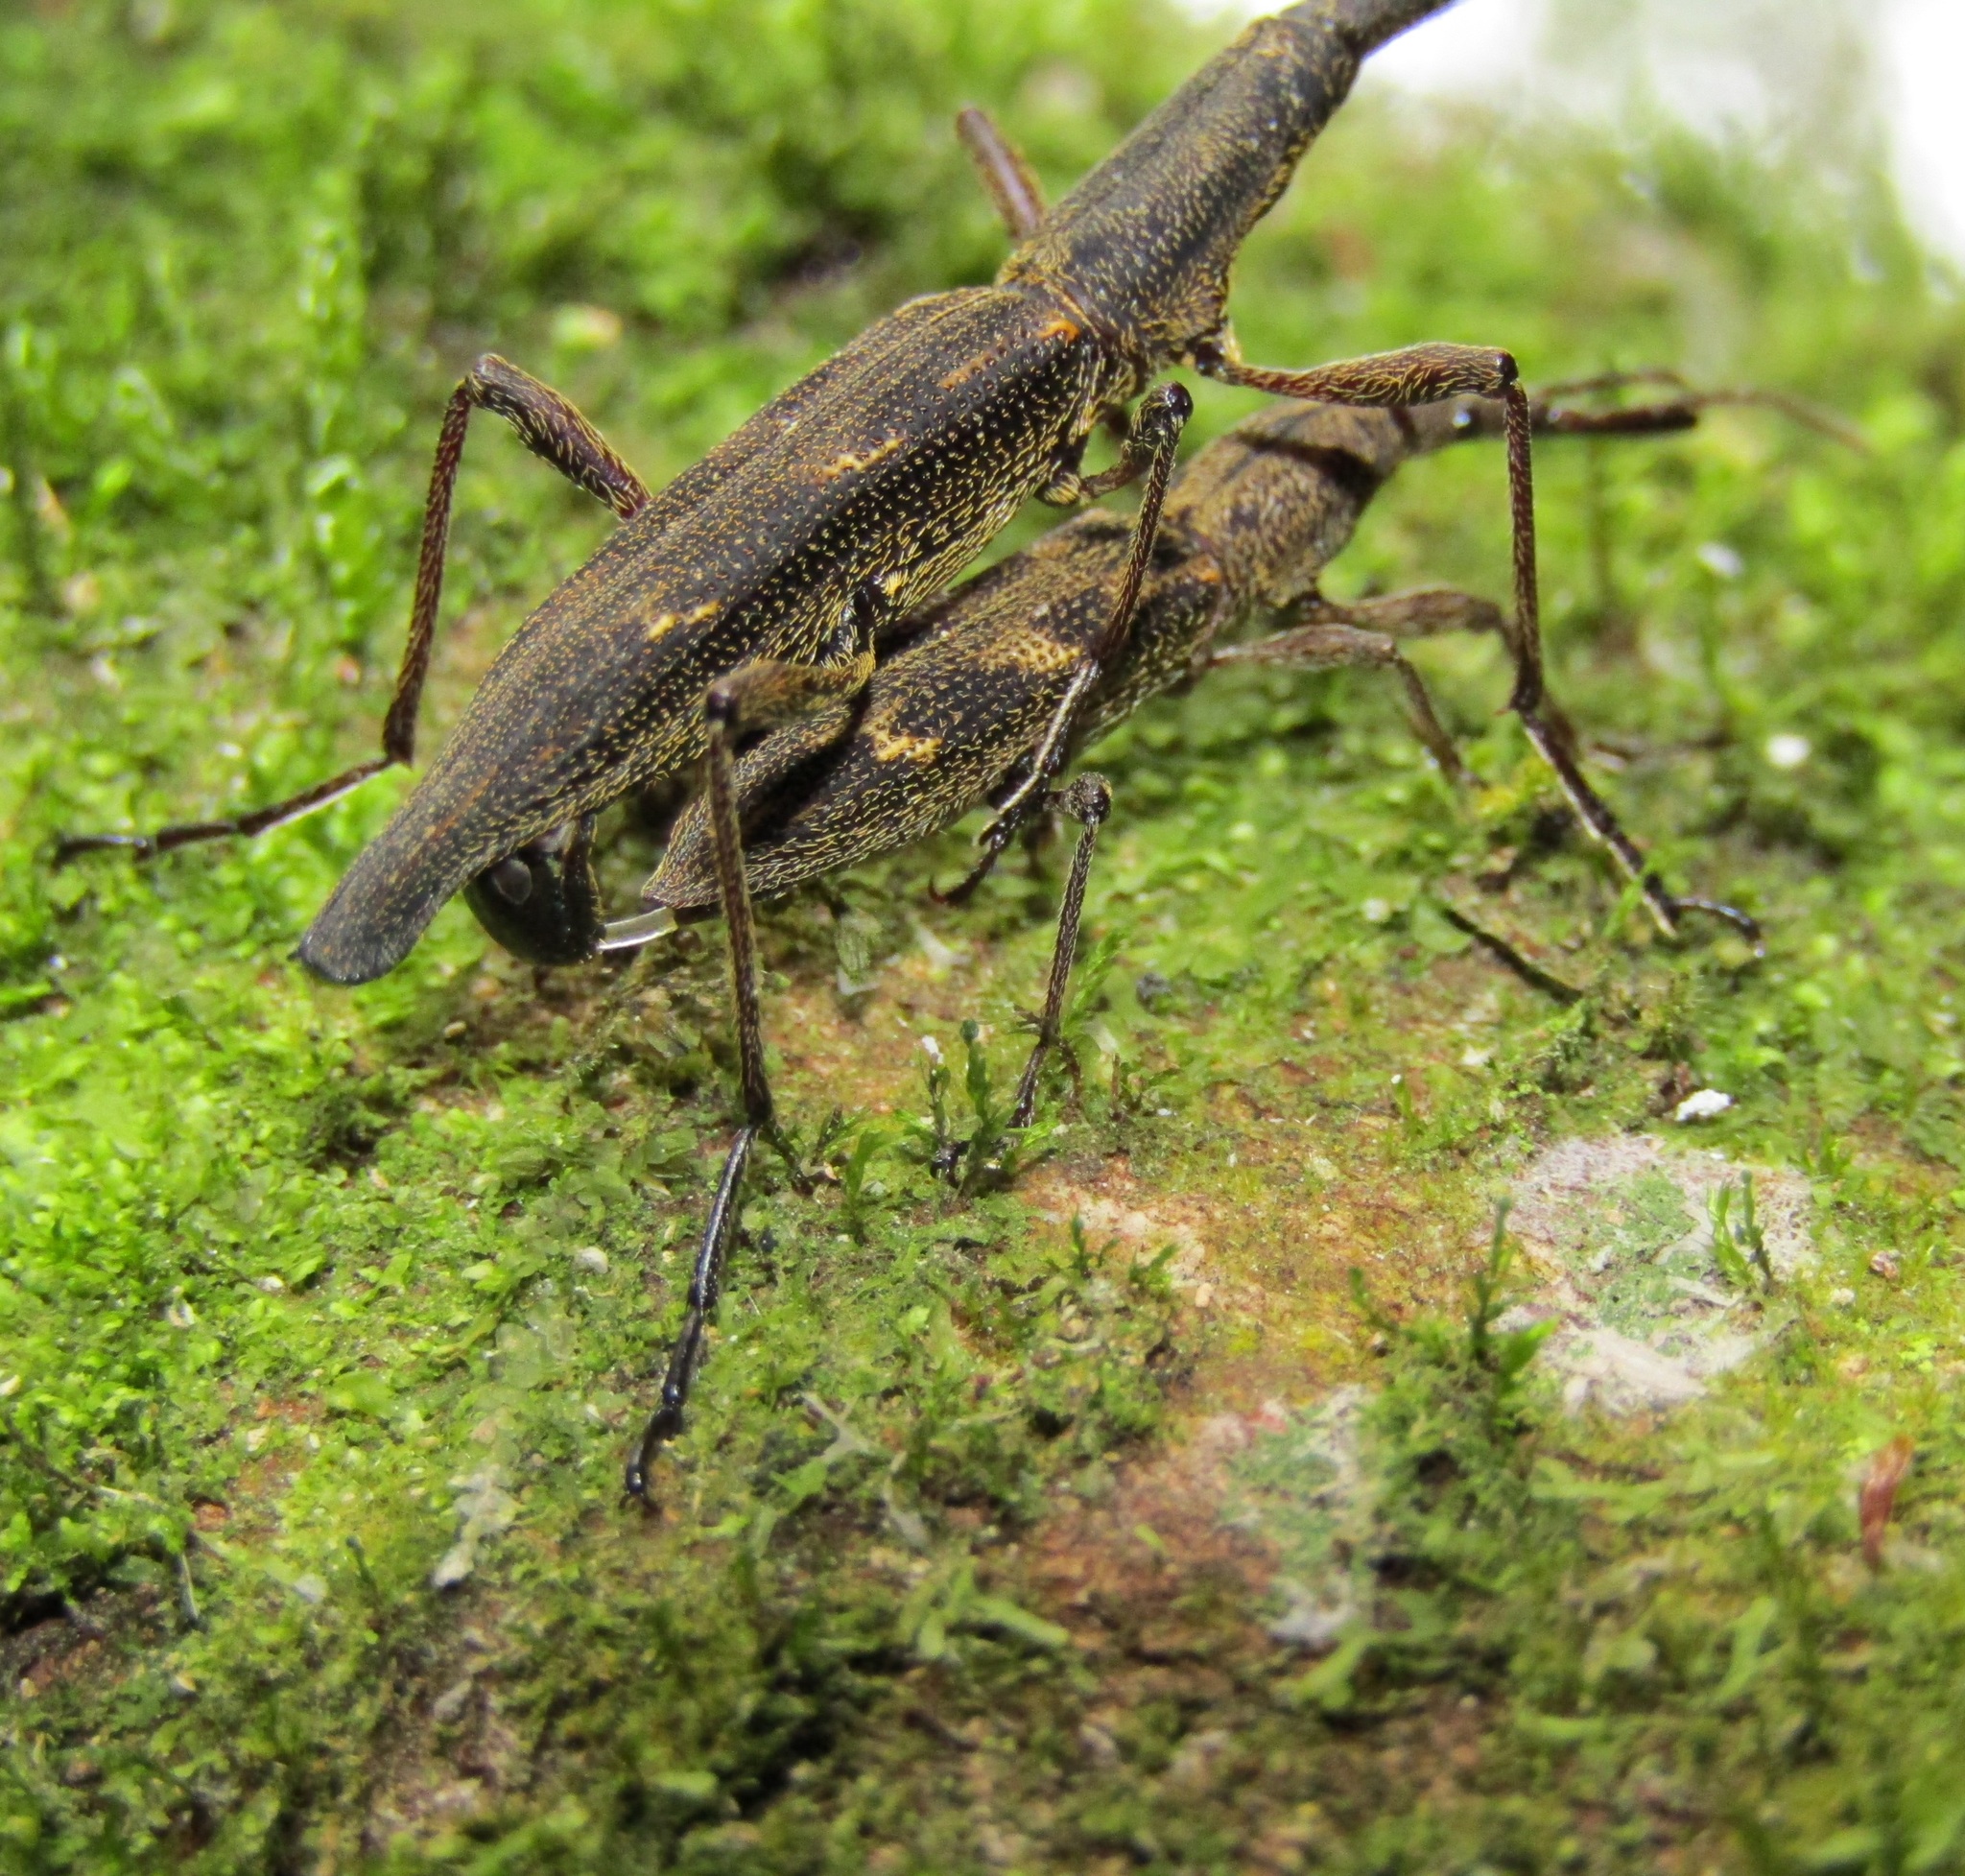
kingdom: Animalia
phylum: Arthropoda
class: Insecta
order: Coleoptera
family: Brentidae
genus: Lasiorhynchus
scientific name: Lasiorhynchus barbicornis
